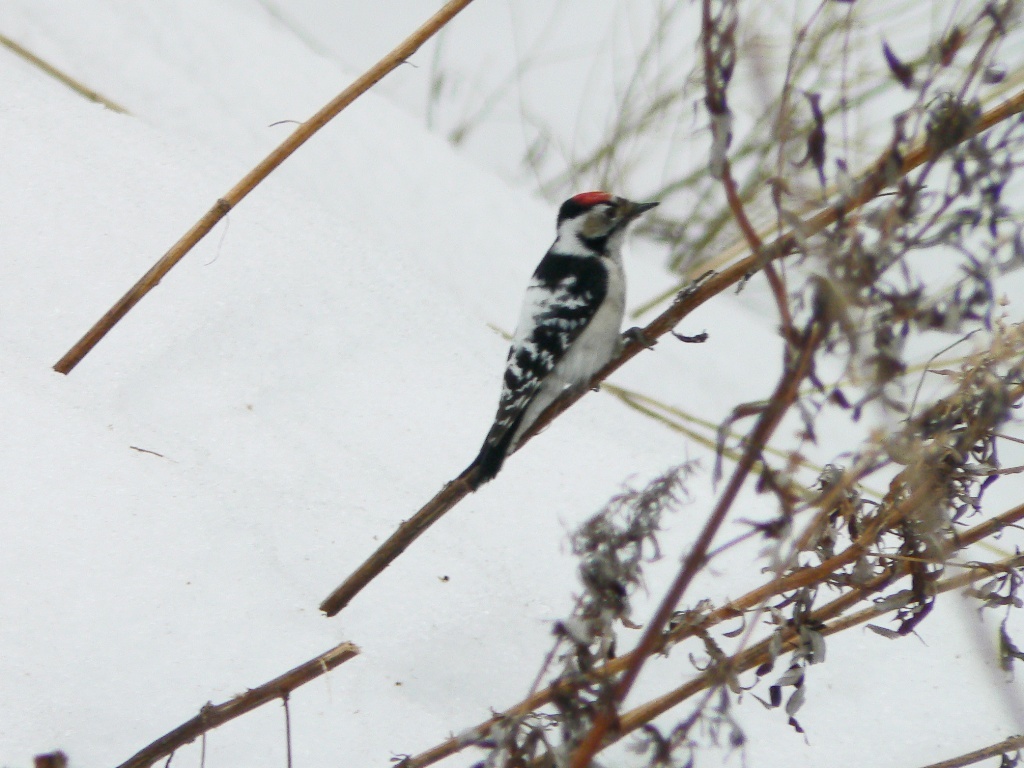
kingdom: Animalia
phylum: Chordata
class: Aves
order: Piciformes
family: Picidae
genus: Dryobates
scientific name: Dryobates minor
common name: Lesser spotted woodpecker
